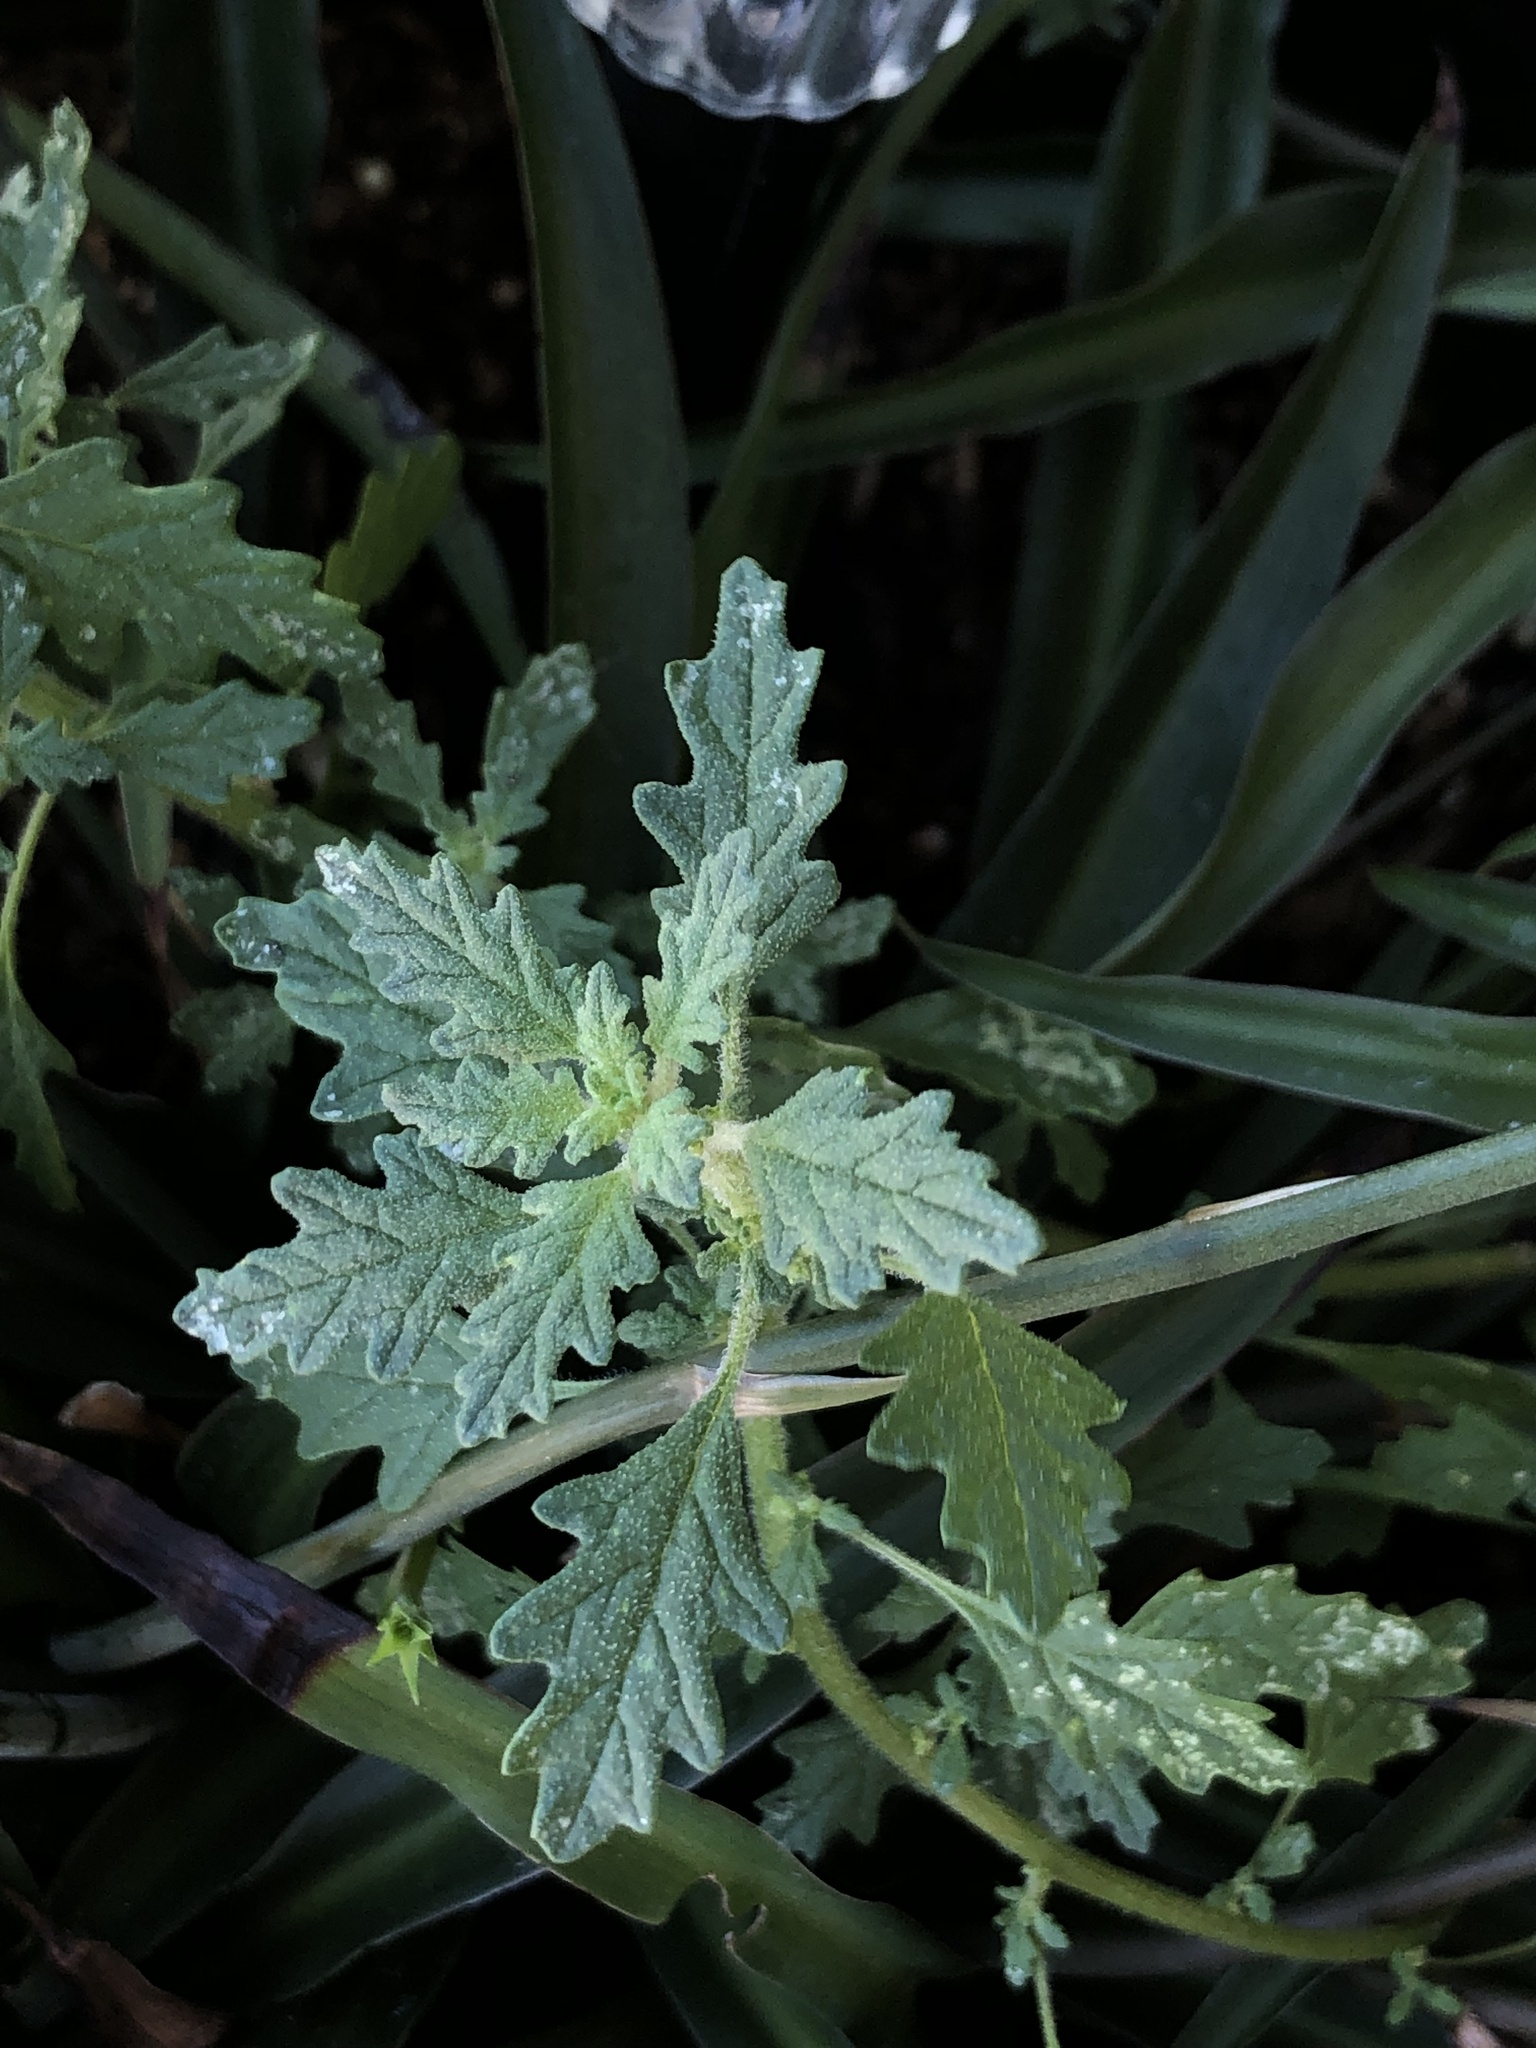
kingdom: Plantae
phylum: Tracheophyta
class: Magnoliopsida
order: Caryophyllales
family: Amaranthaceae
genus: Dysphania
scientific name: Dysphania pumilio
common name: Clammy goosefoot
